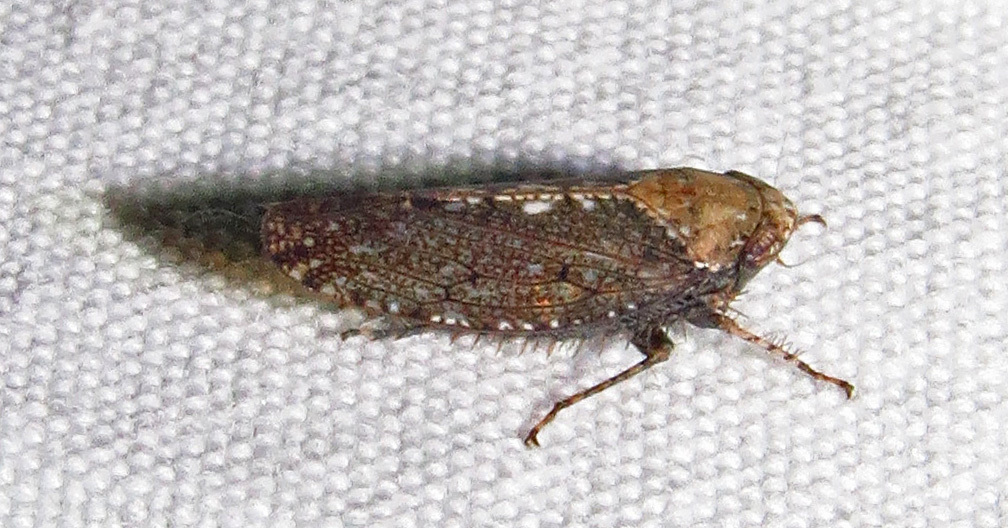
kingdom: Animalia
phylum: Arthropoda
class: Insecta
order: Hemiptera
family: Cicadellidae
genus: Excultanus
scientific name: Excultanus excultus
